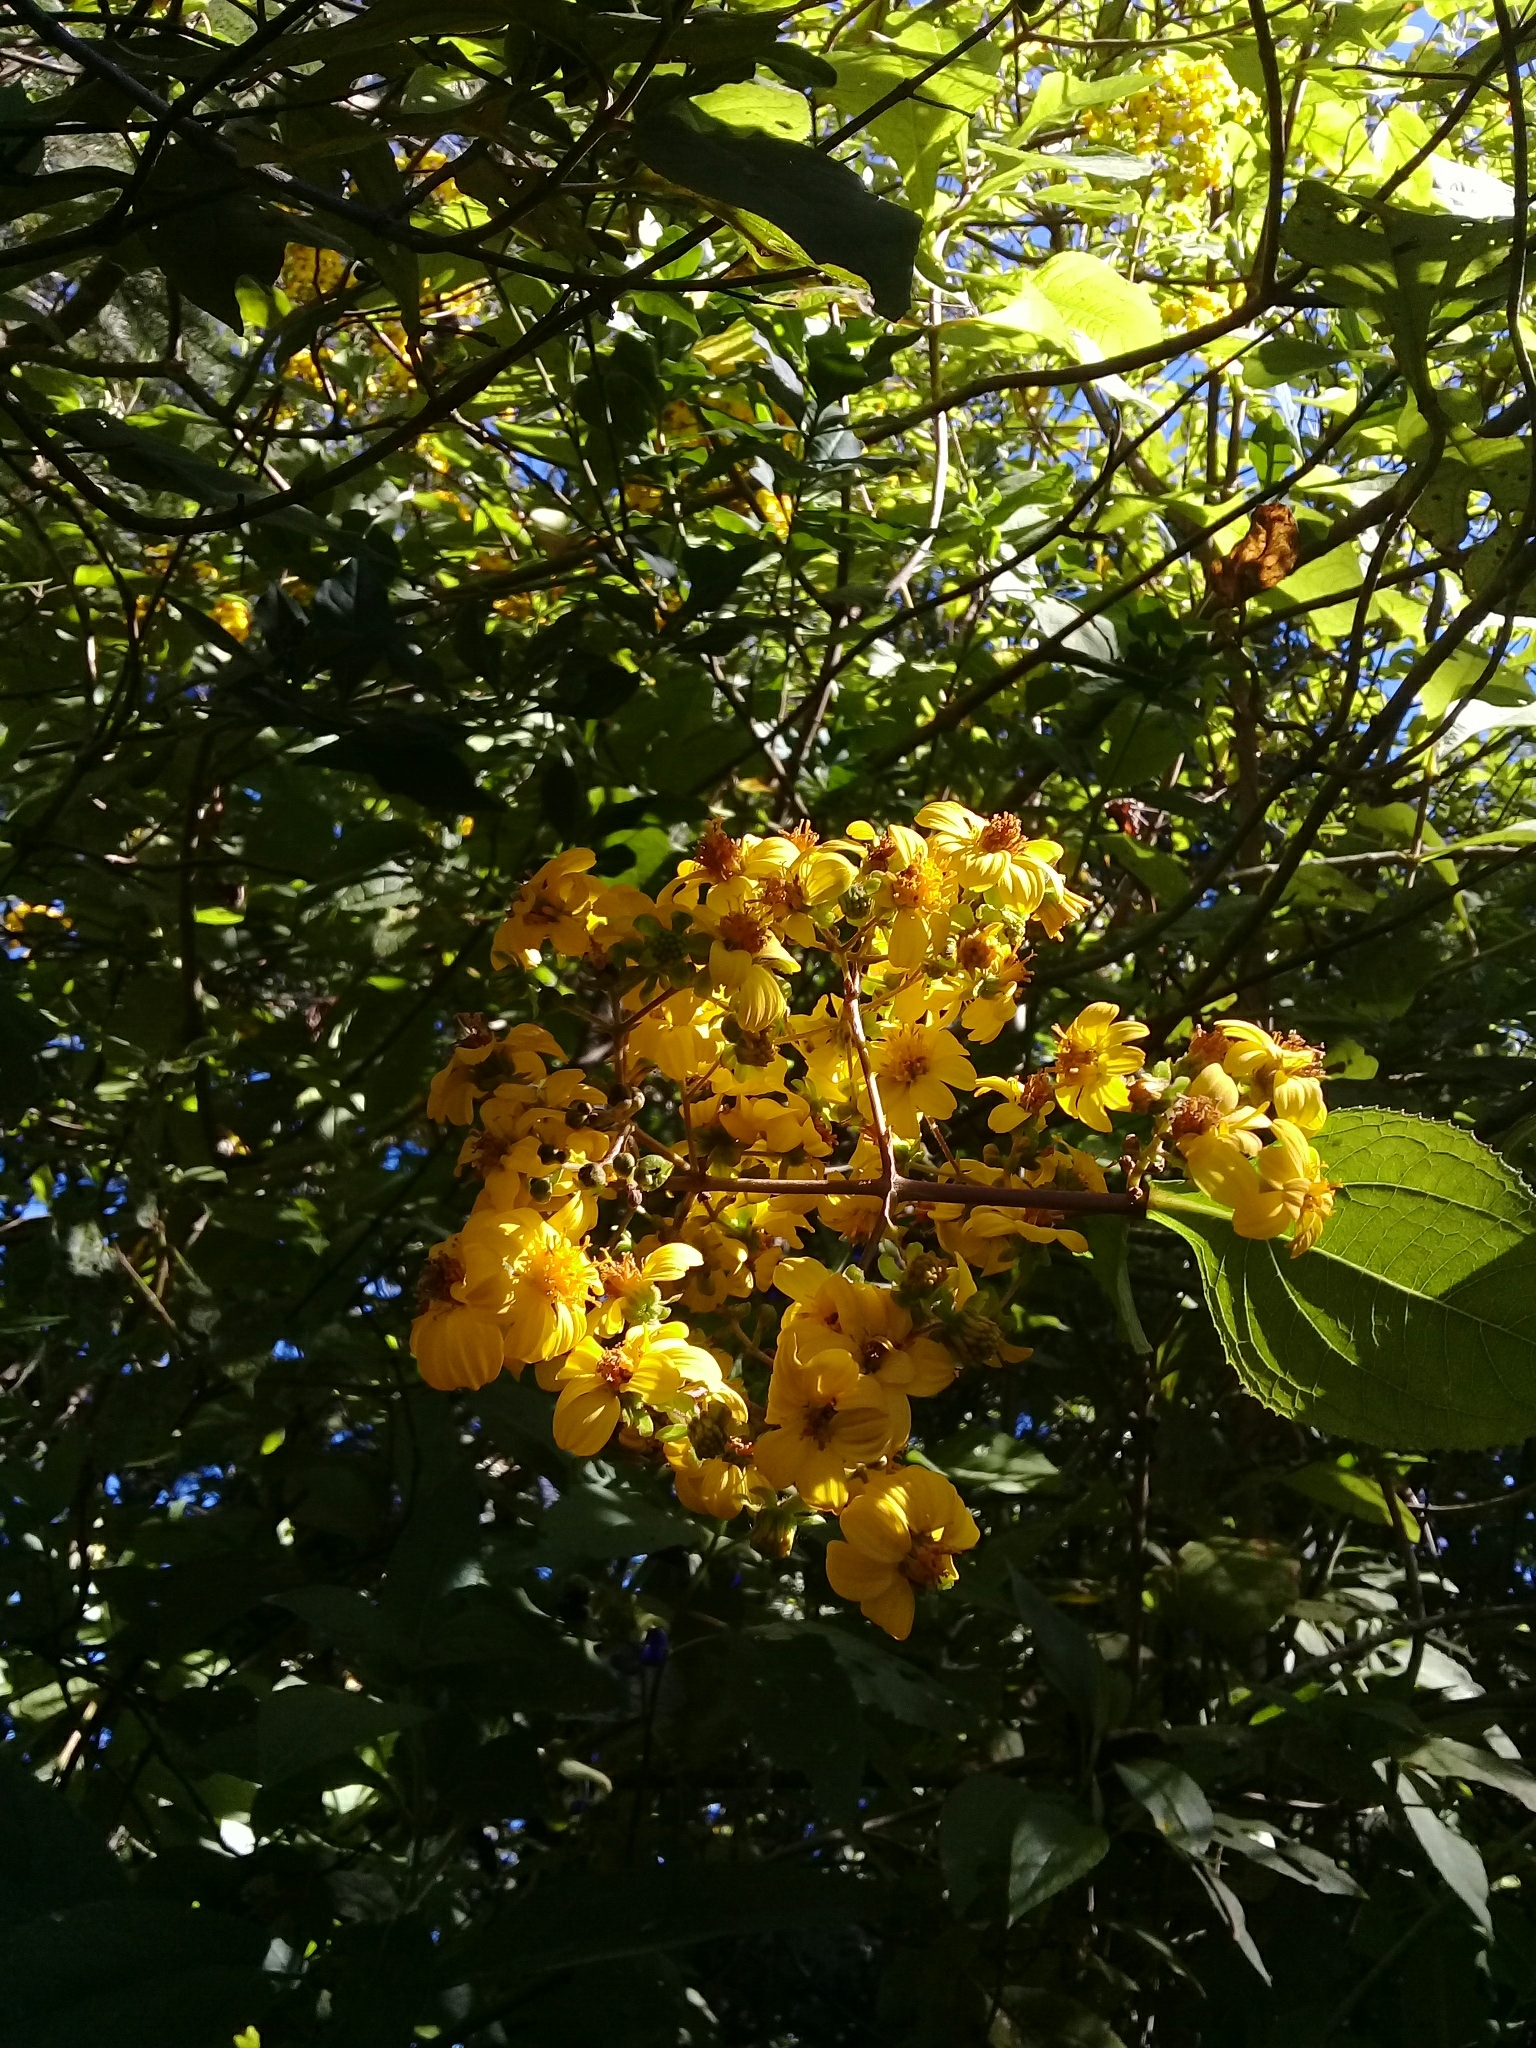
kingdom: Plantae
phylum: Tracheophyta
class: Magnoliopsida
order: Asterales
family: Asteraceae
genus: Rumfordia
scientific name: Rumfordia floribunda
